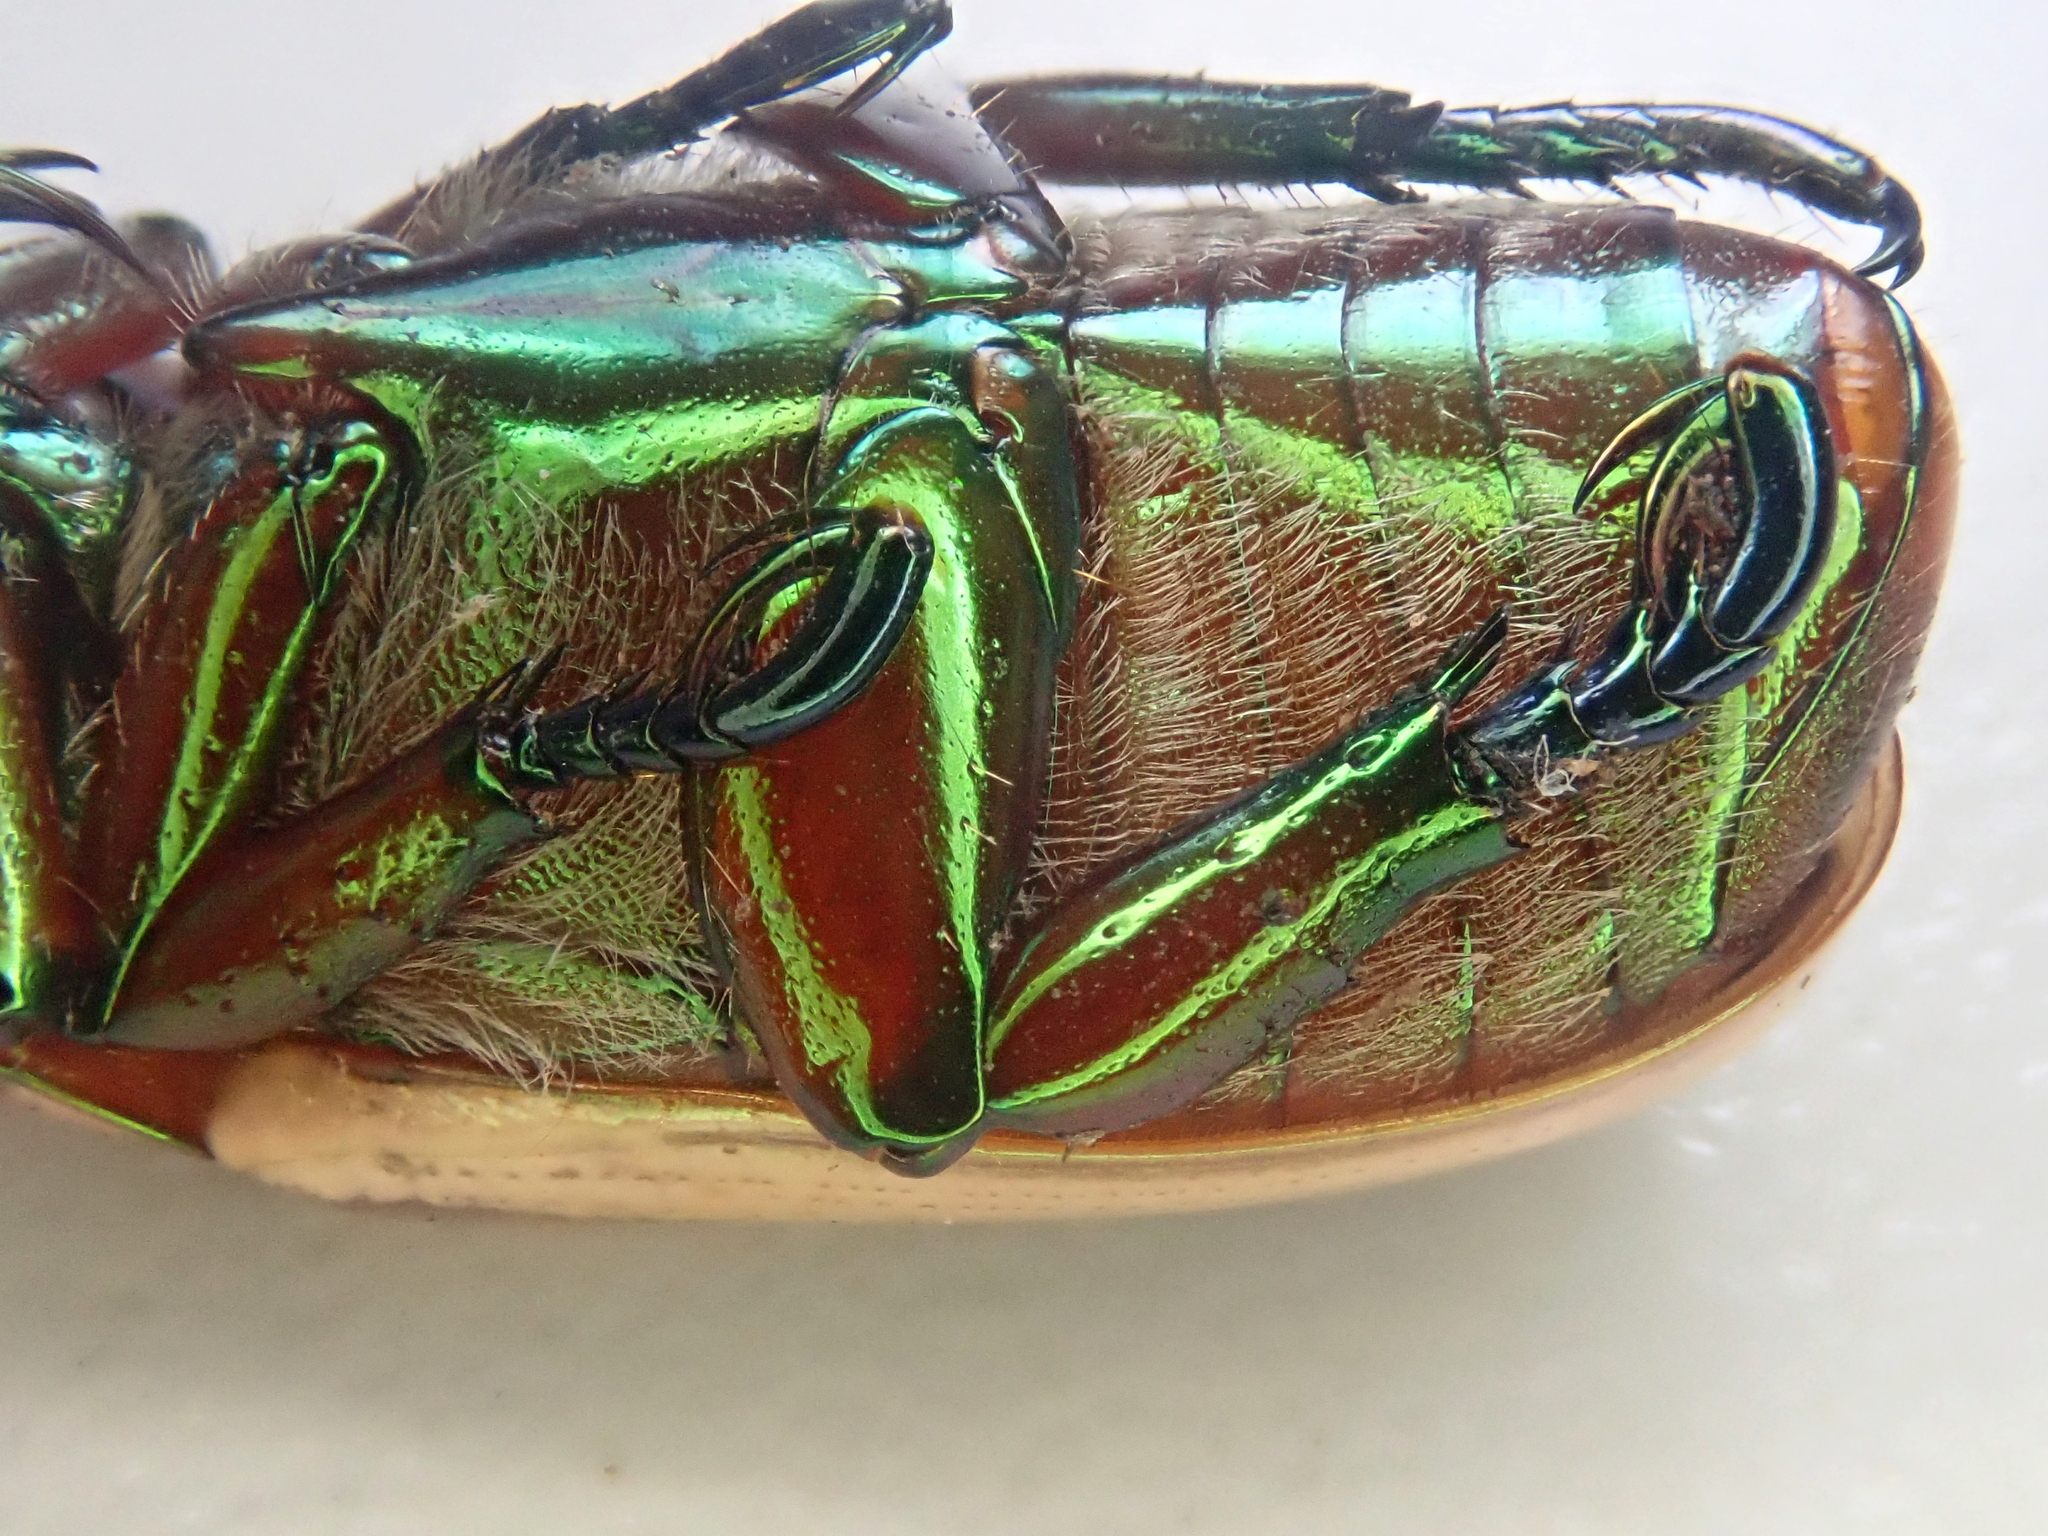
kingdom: Animalia
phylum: Arthropoda
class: Insecta
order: Coleoptera
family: Scarabaeidae
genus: Pelidnota
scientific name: Pelidnota testaceovirens
